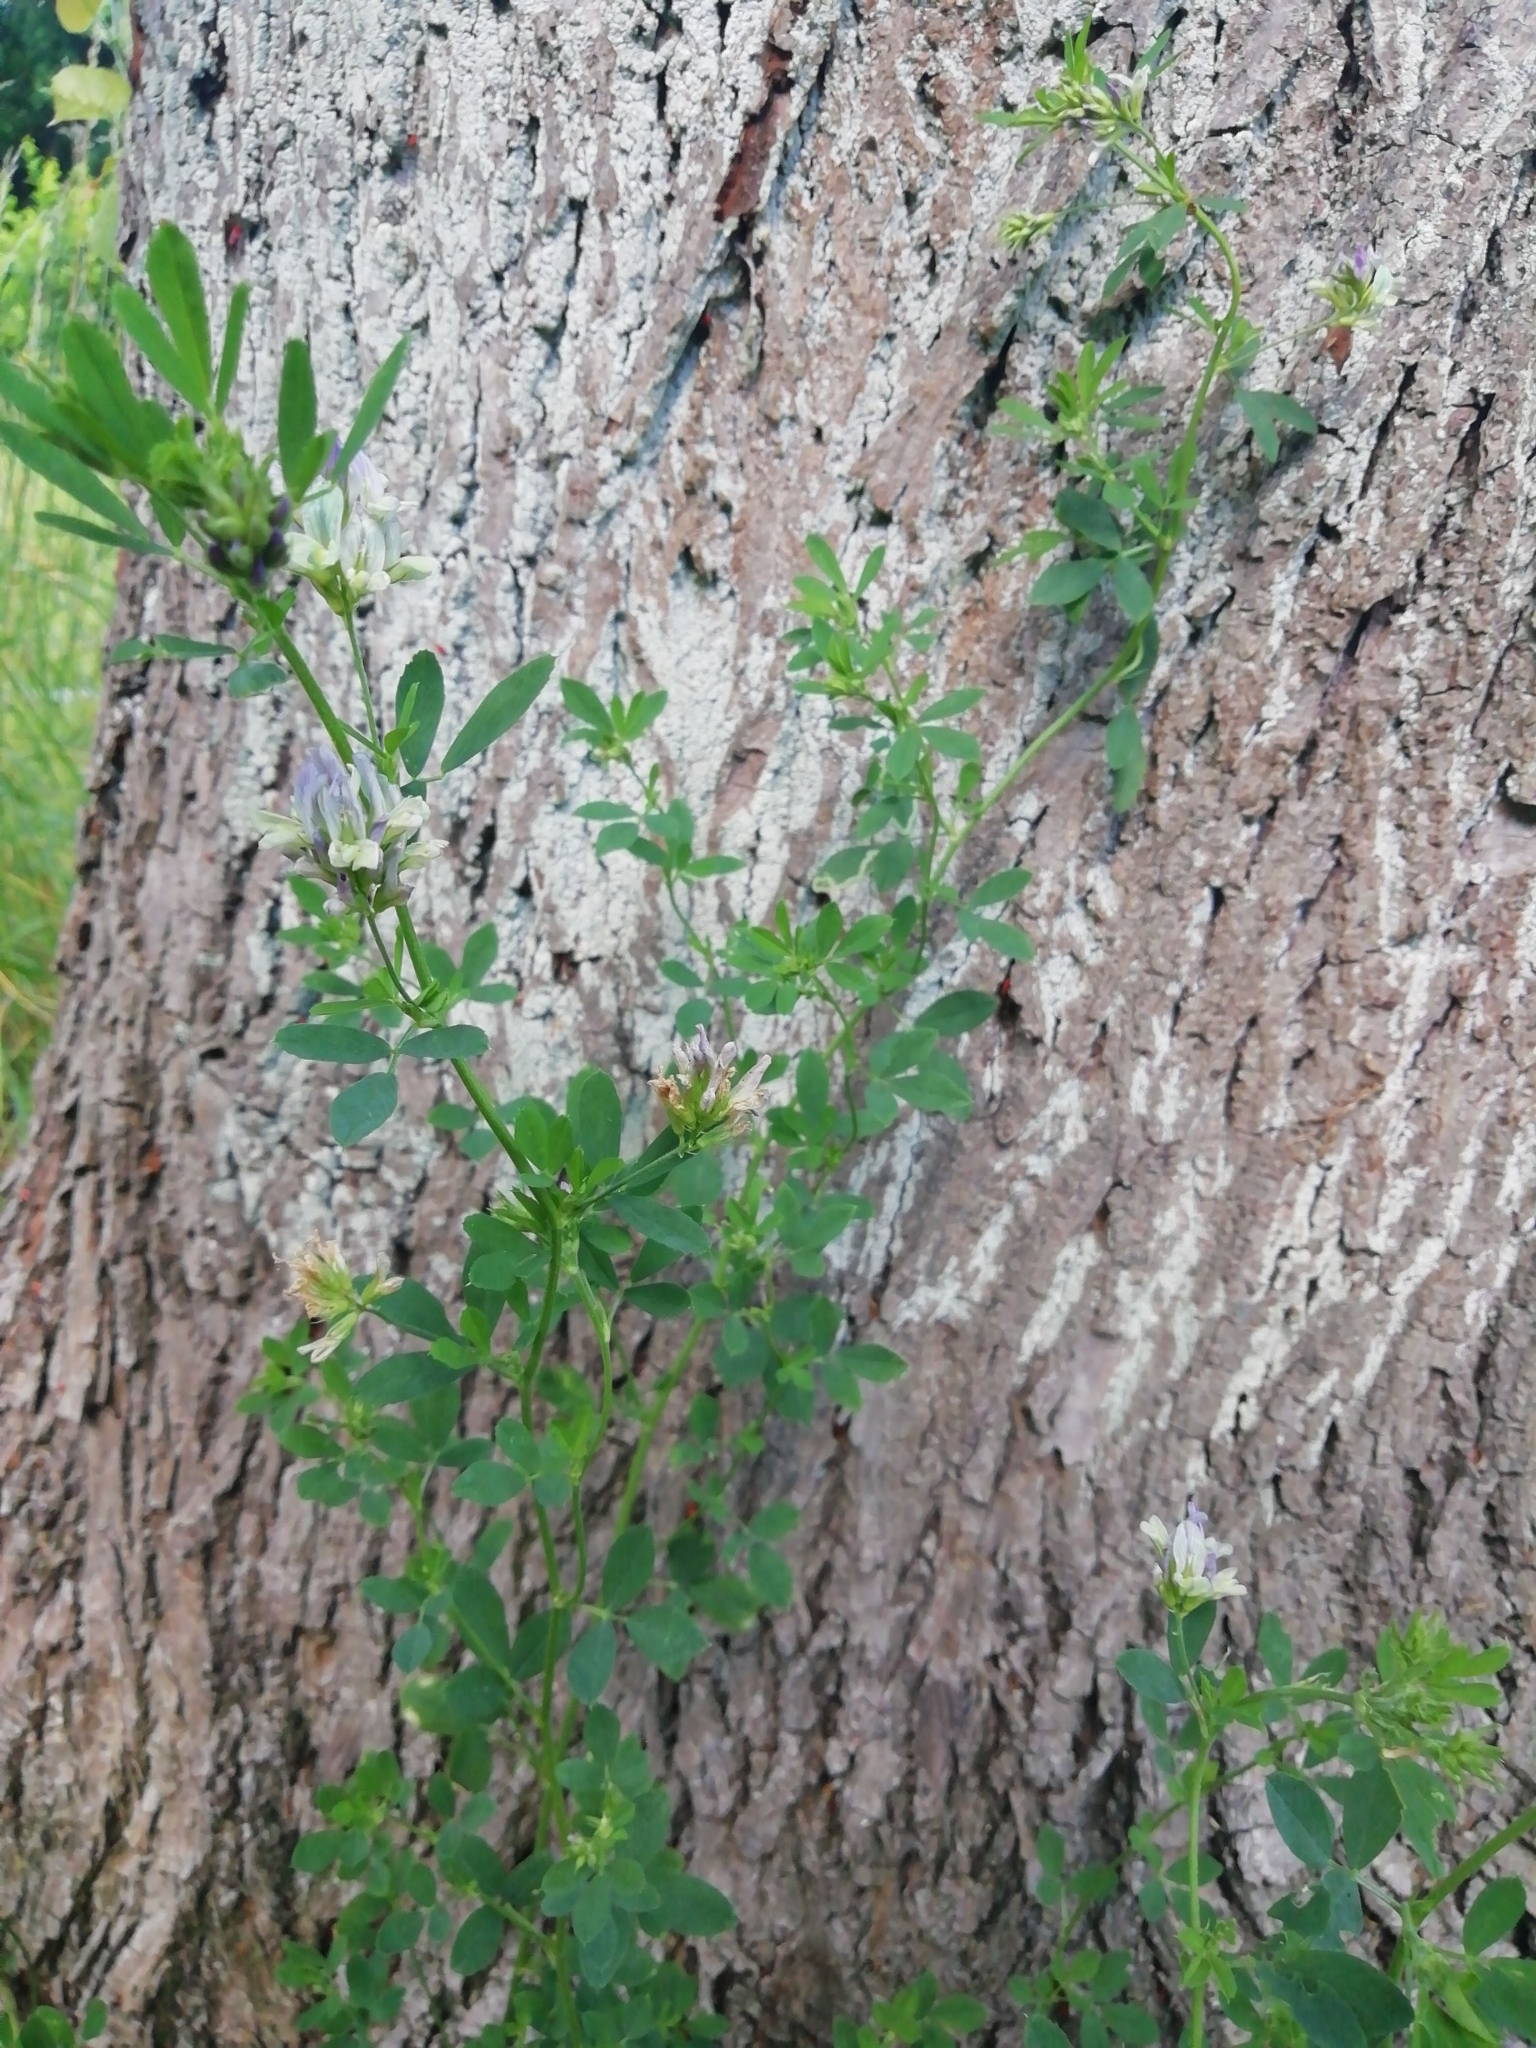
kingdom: Plantae
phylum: Tracheophyta
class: Magnoliopsida
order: Fabales
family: Fabaceae
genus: Medicago
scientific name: Medicago varia
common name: Sand lucerne
